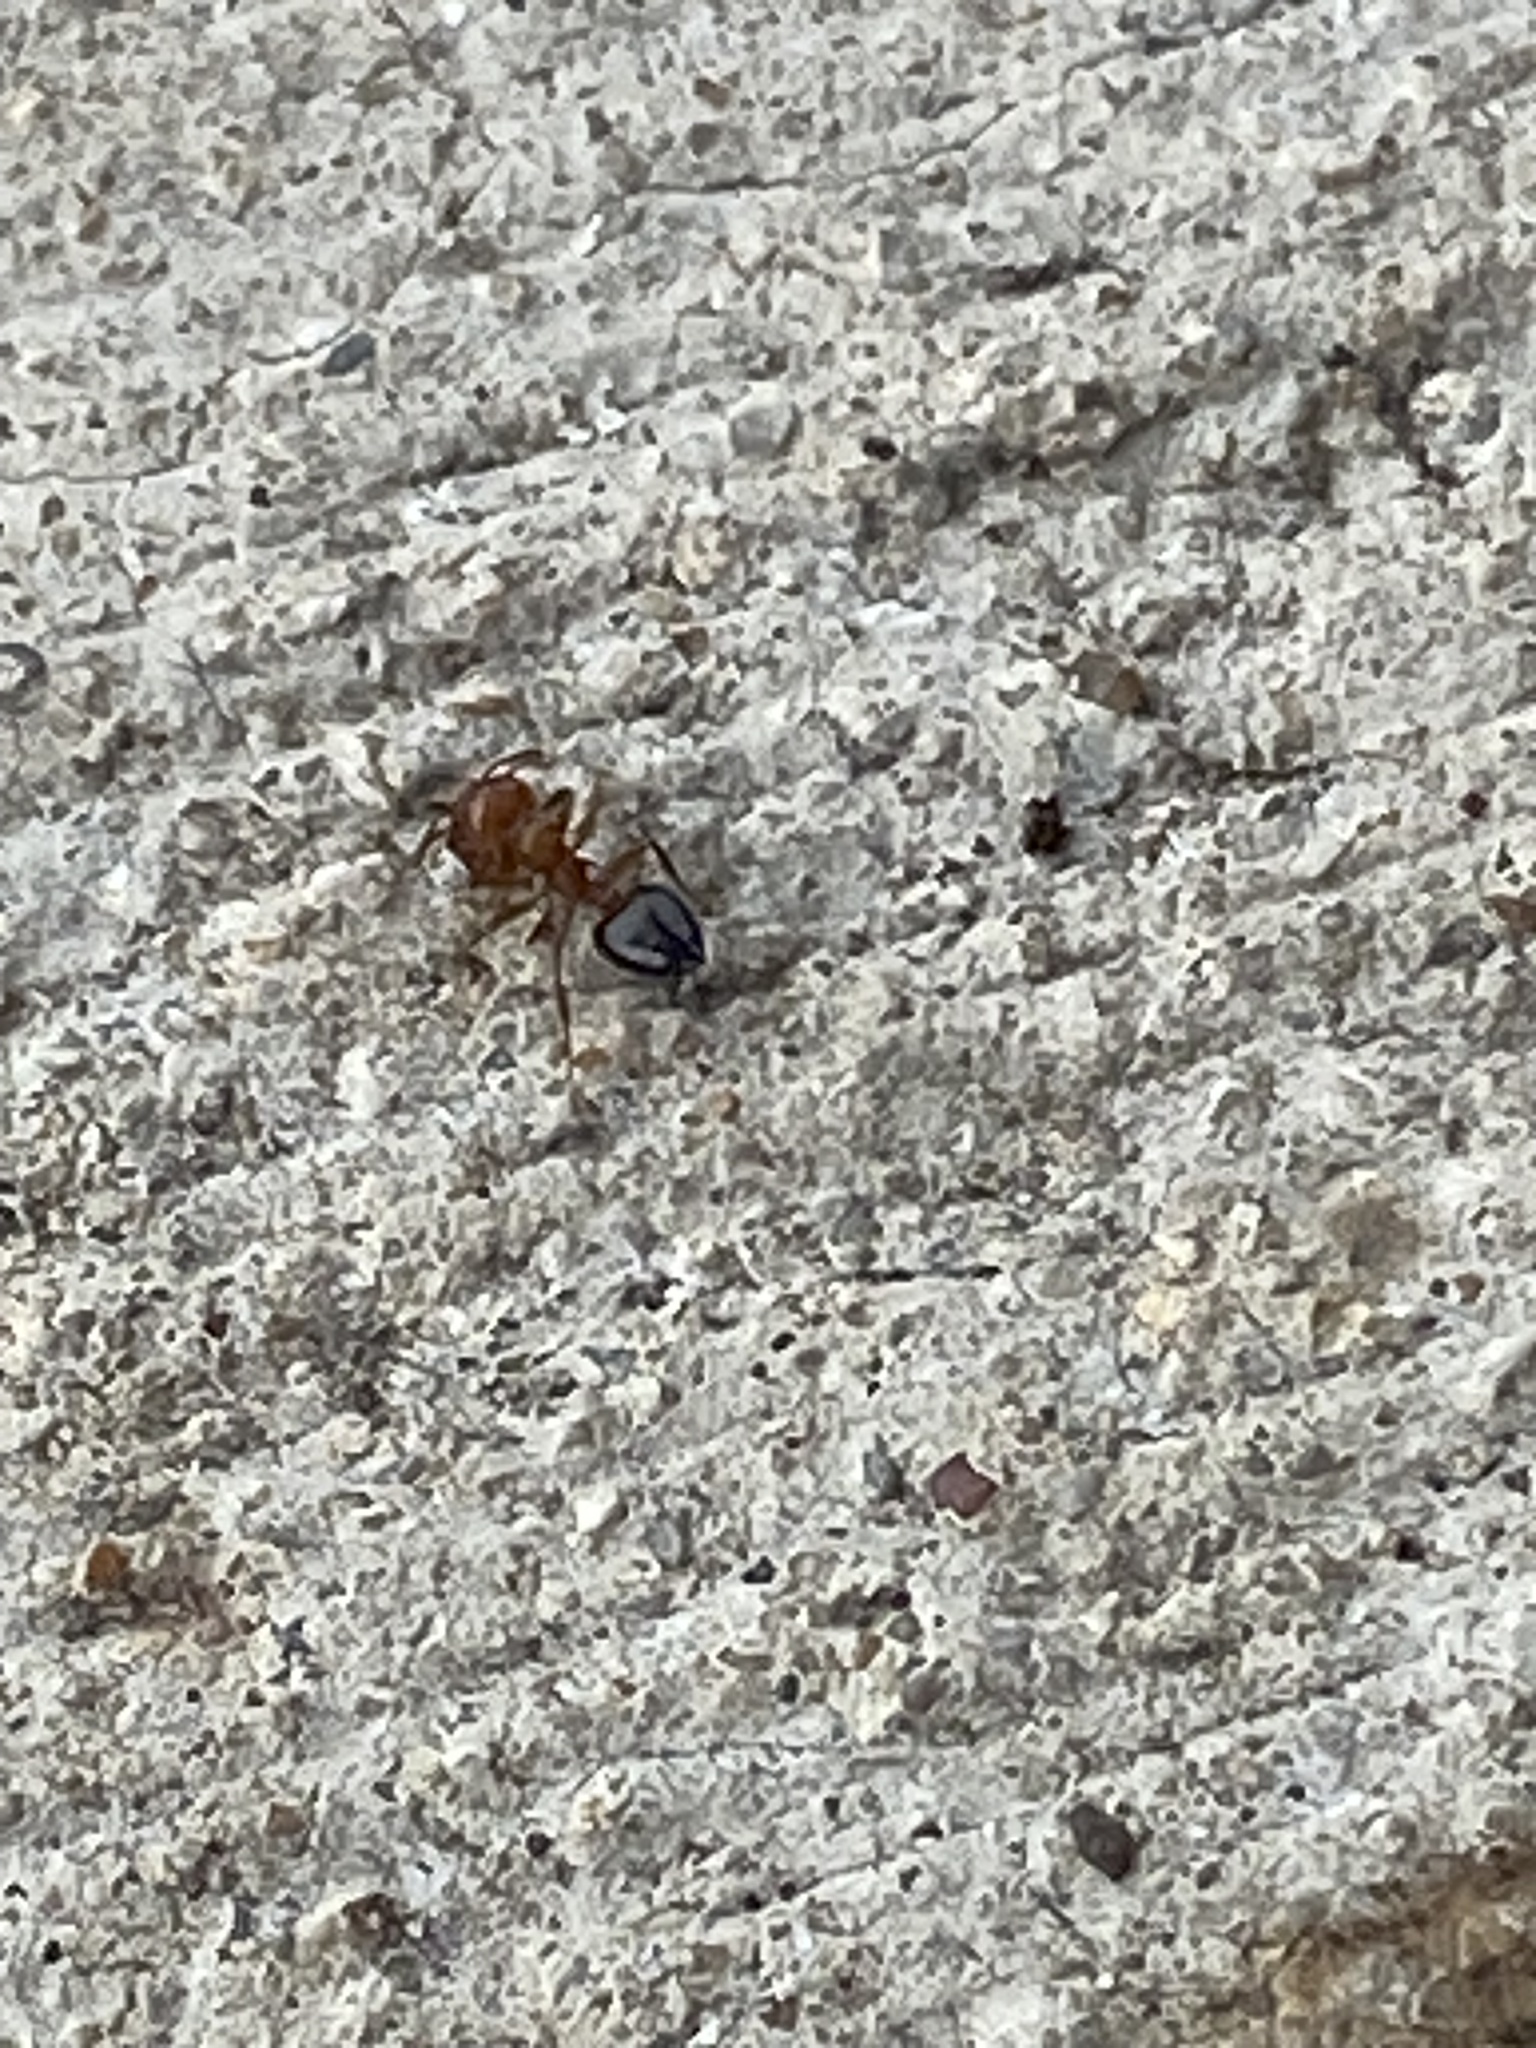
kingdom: Animalia
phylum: Arthropoda
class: Insecta
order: Hymenoptera
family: Formicidae
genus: Crematogaster
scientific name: Crematogaster laeviuscula
